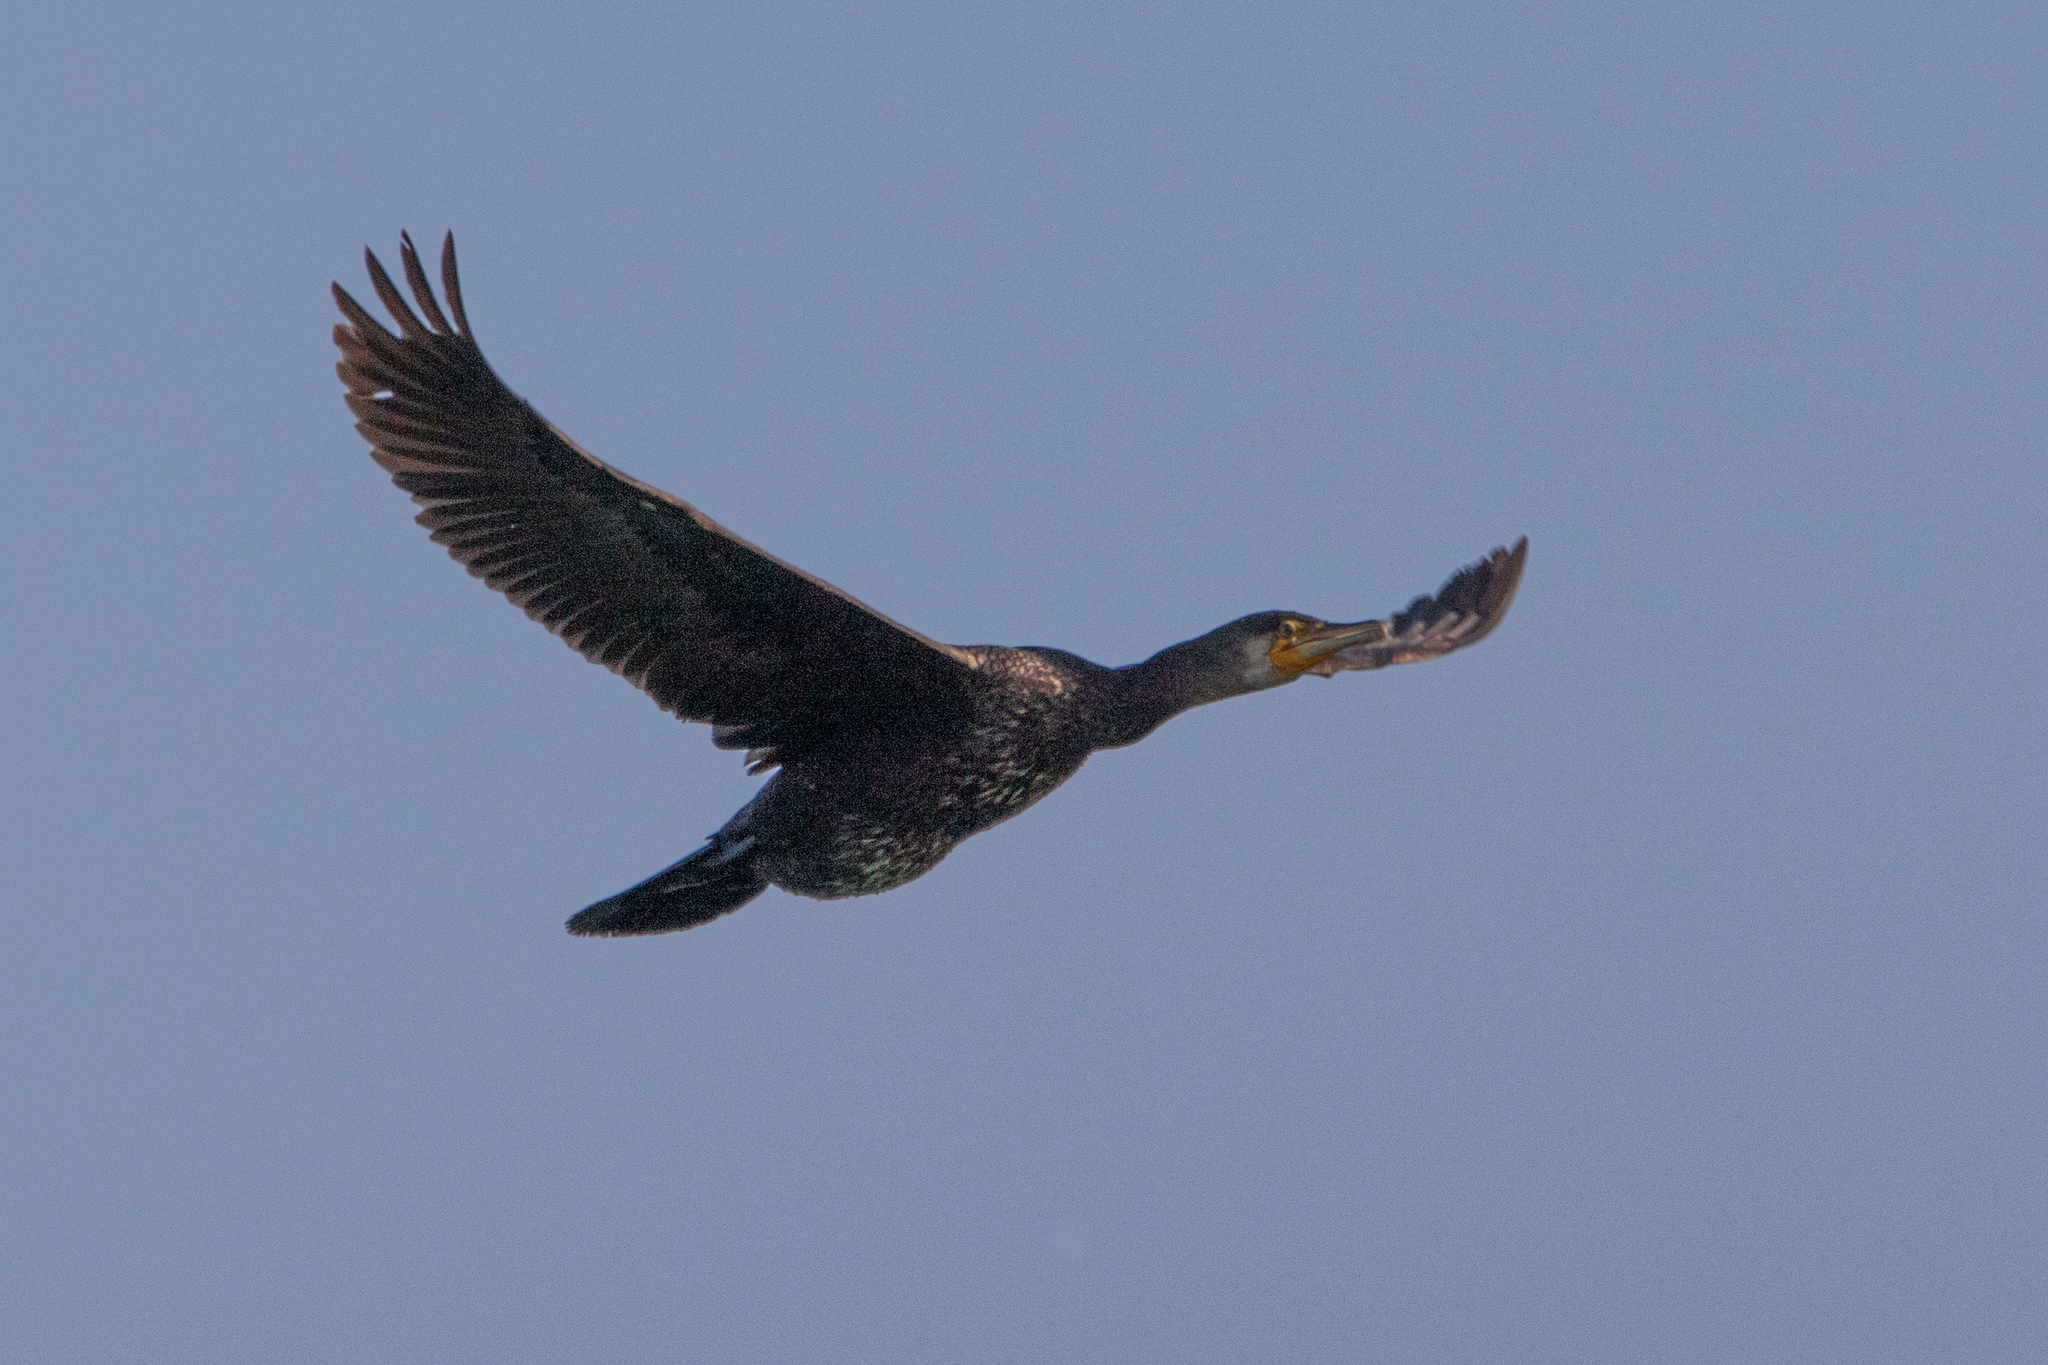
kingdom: Animalia
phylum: Chordata
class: Aves
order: Suliformes
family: Phalacrocoracidae
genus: Phalacrocorax
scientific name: Phalacrocorax carbo
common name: Great cormorant
